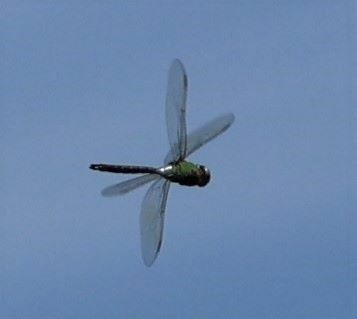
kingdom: Animalia
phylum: Arthropoda
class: Insecta
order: Odonata
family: Aeshnidae
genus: Anax
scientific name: Anax junius
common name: Common green darner
